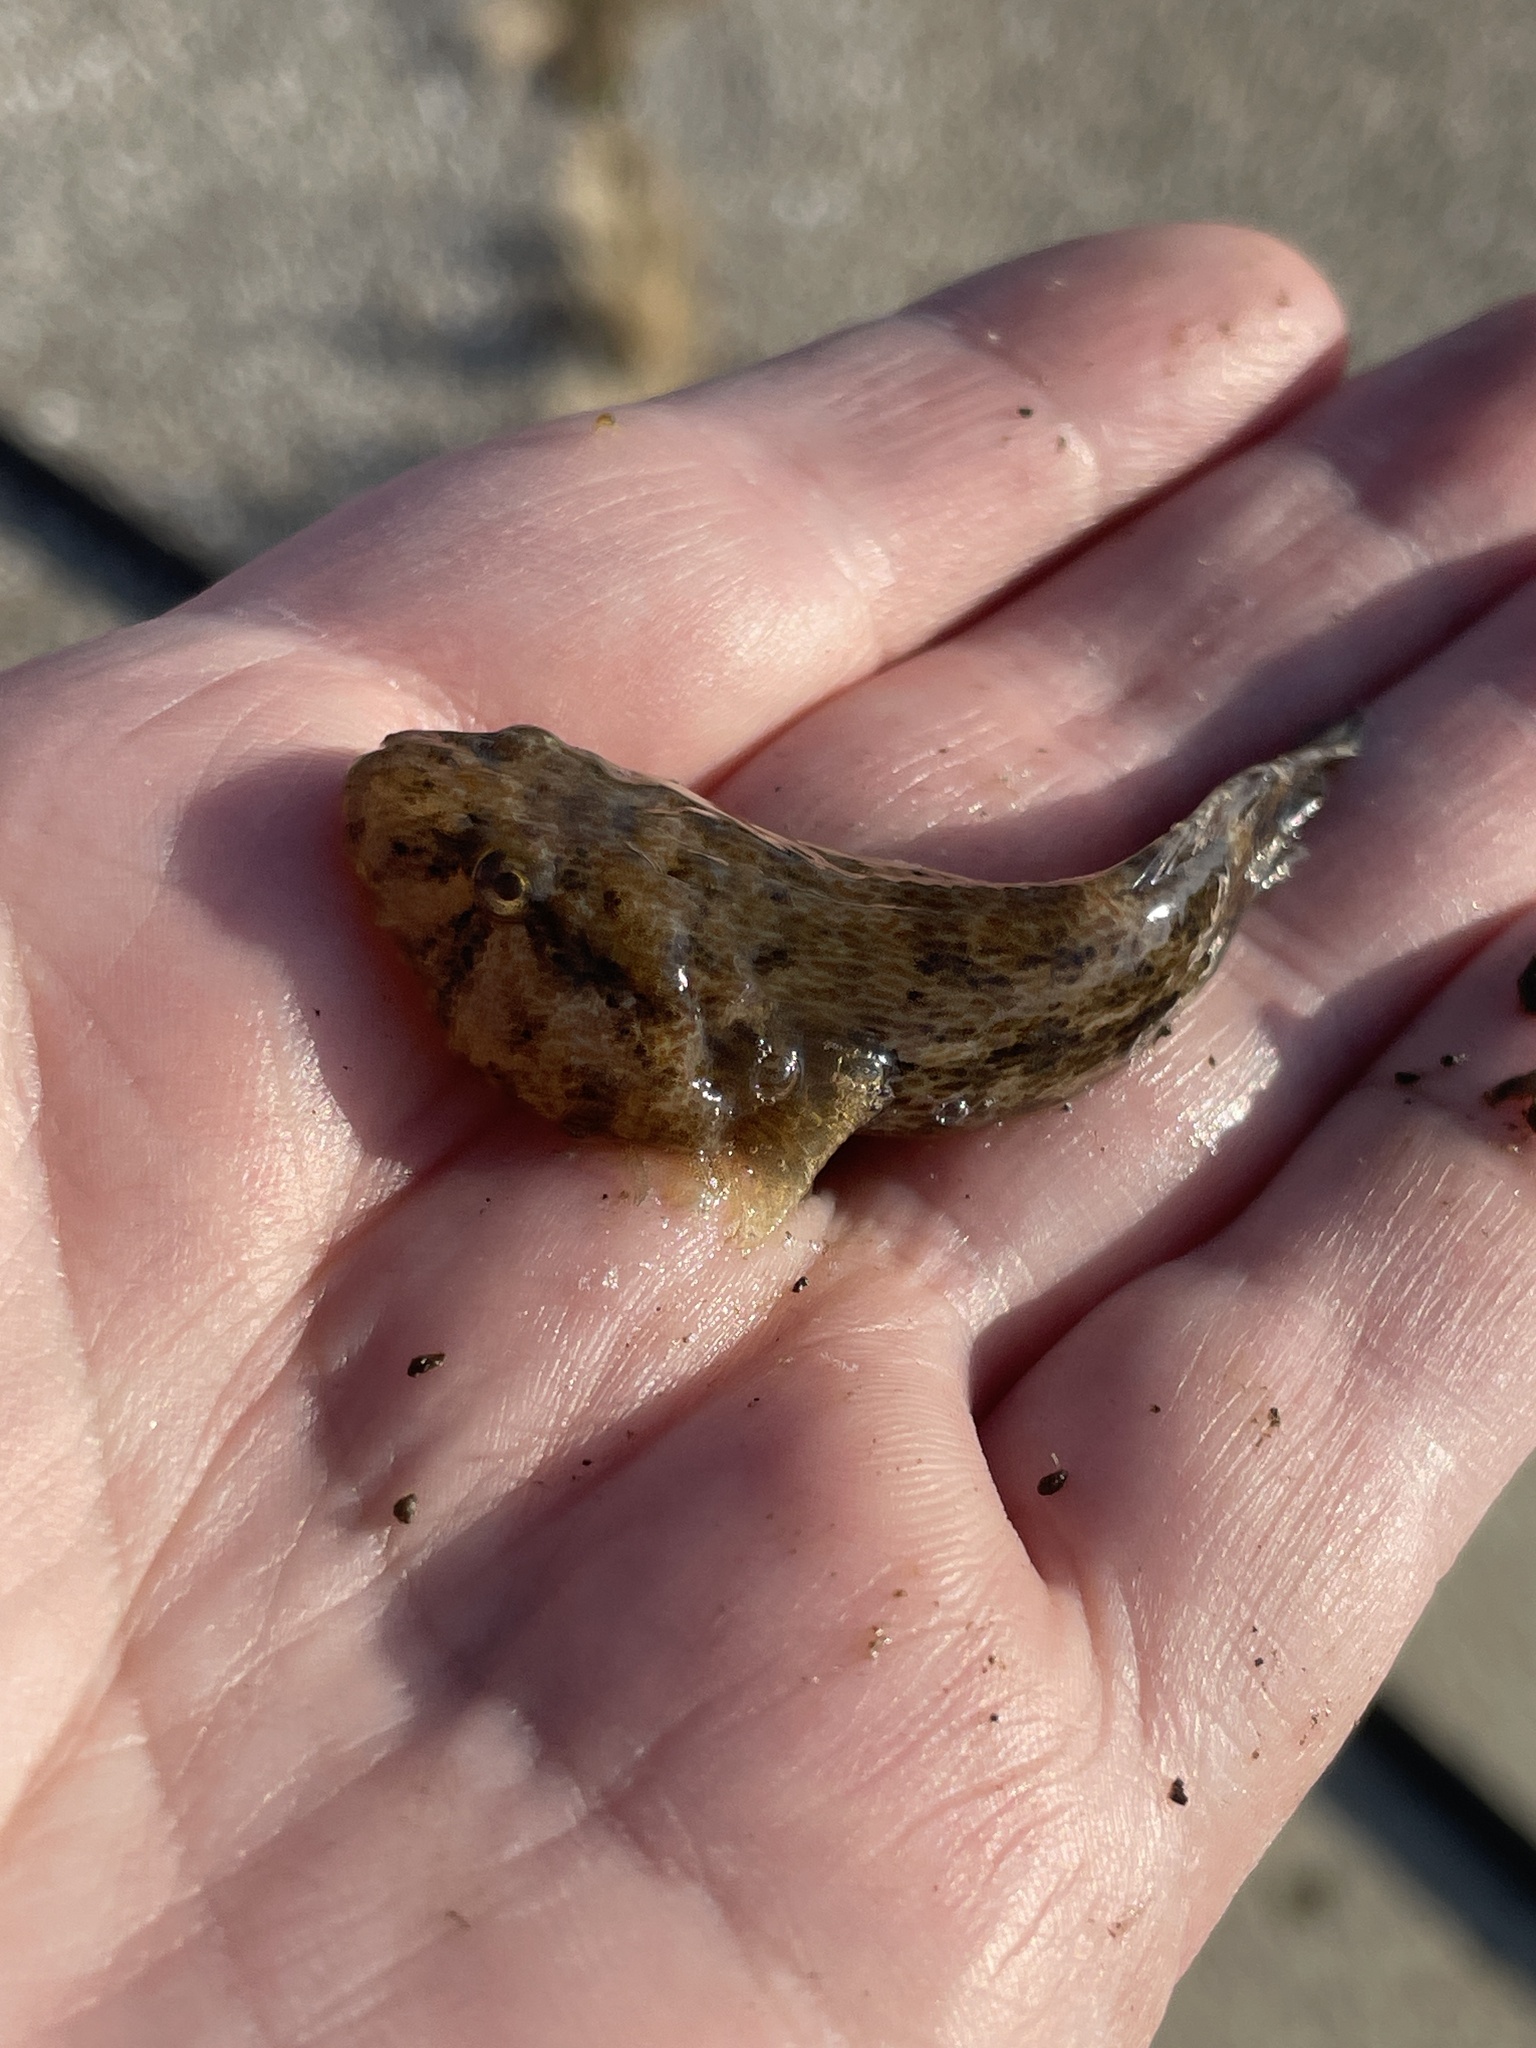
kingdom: Animalia
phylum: Chordata
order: Gobiesociformes
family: Gobiesocidae
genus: Gobiesox
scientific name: Gobiesox strumosus
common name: Skilletfish
